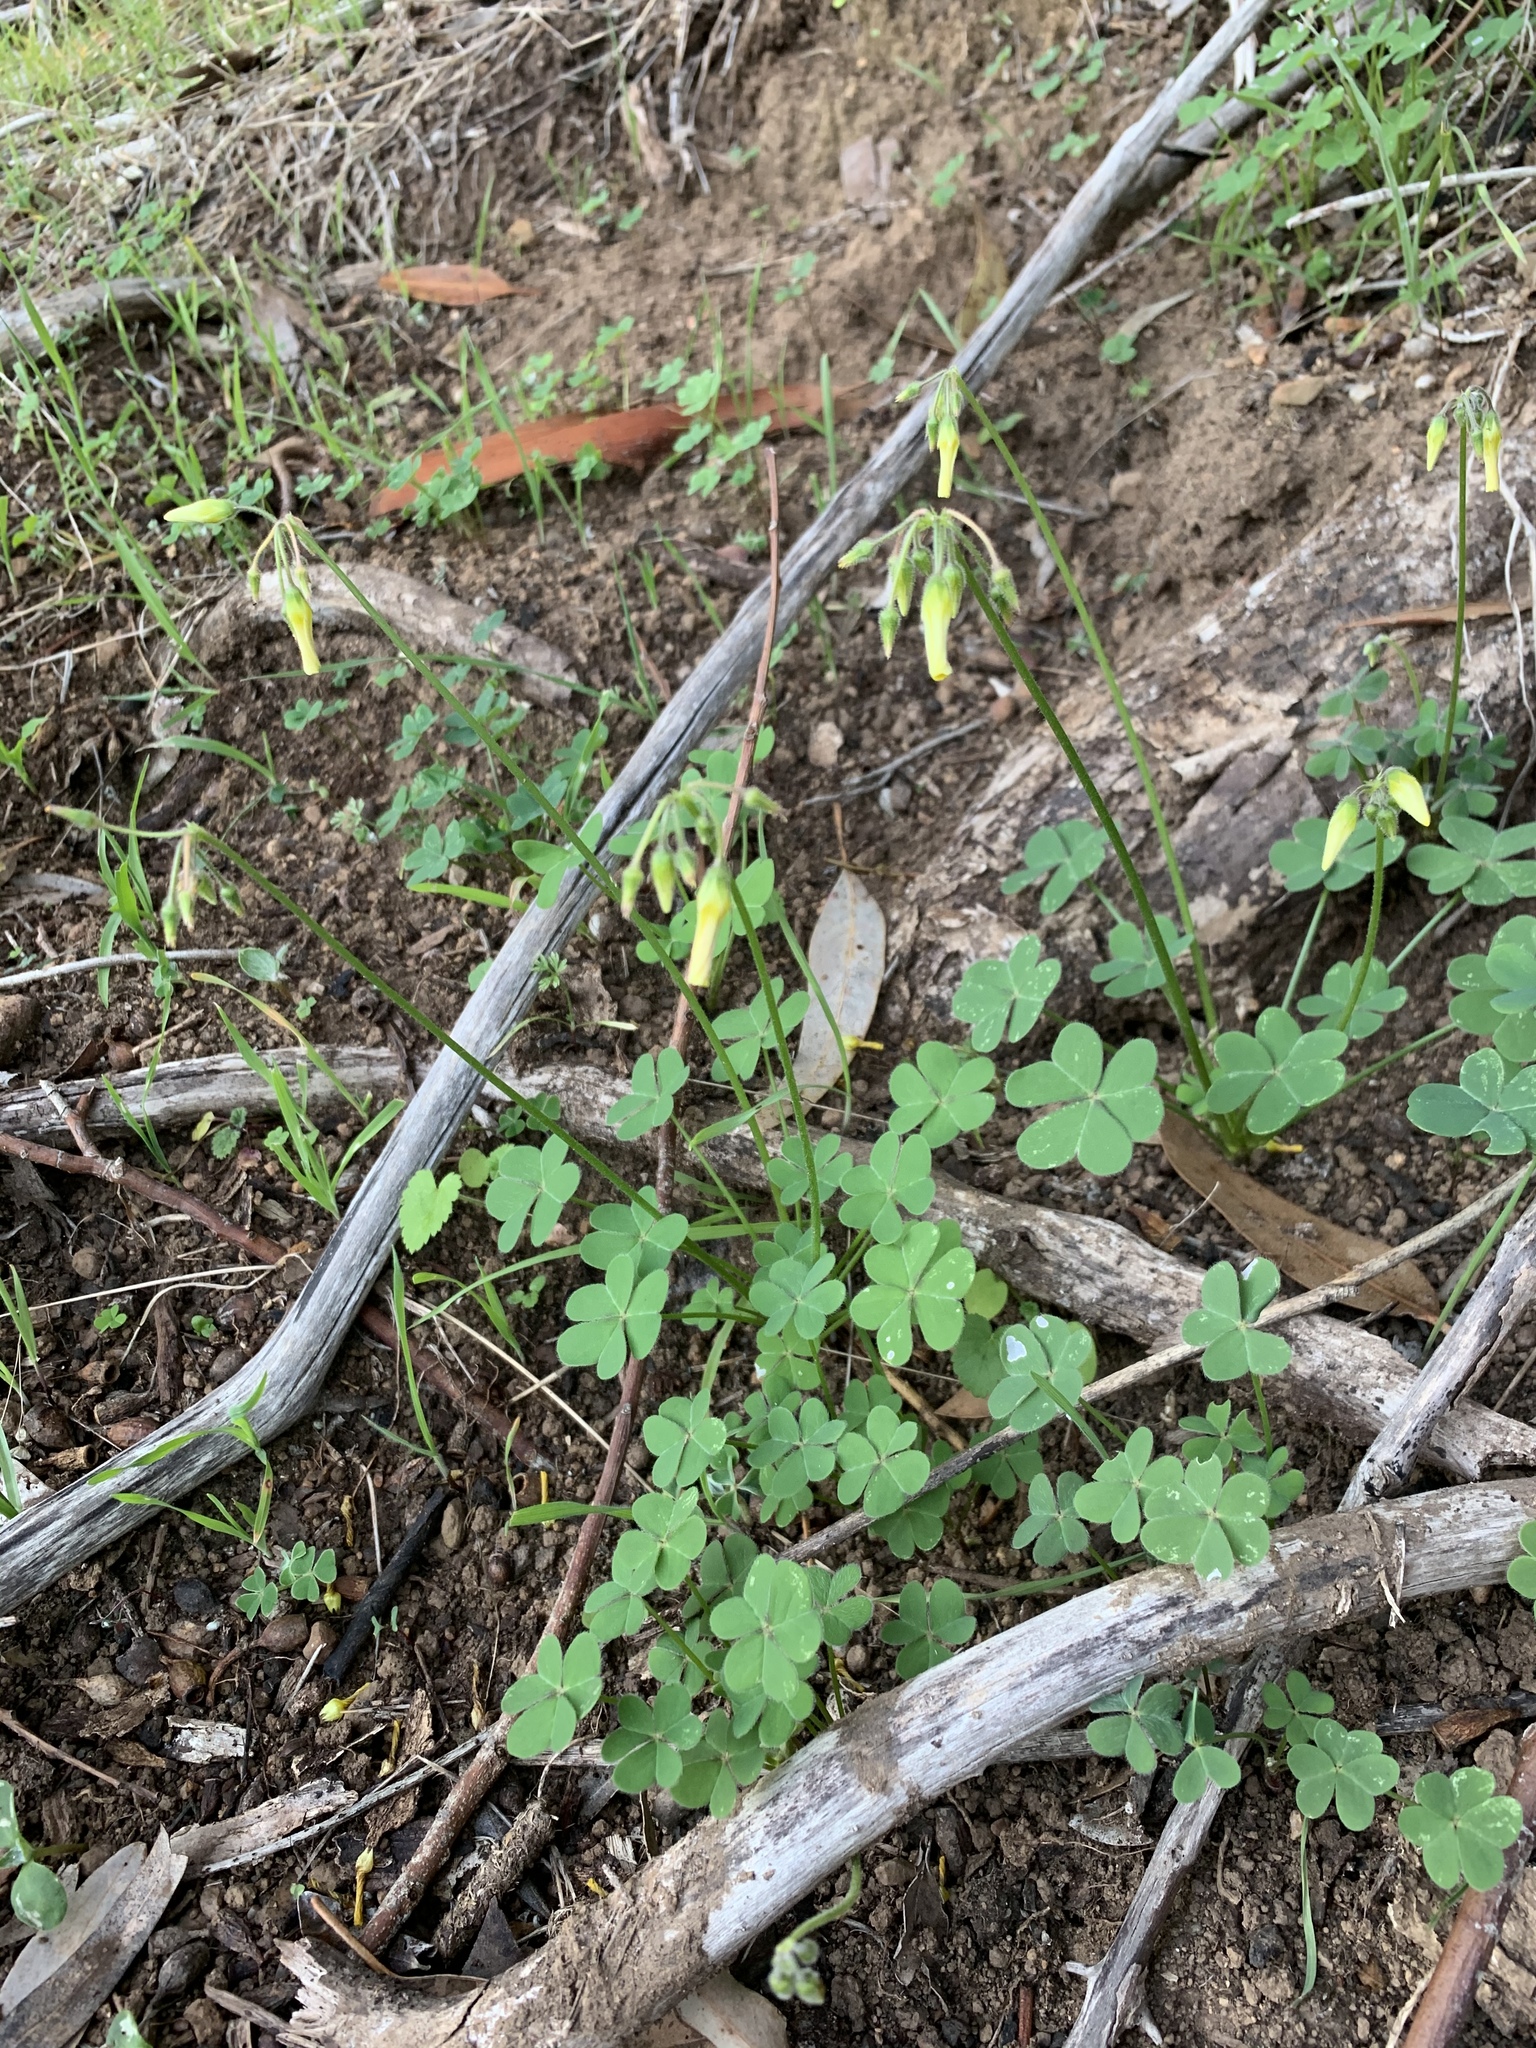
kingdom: Plantae
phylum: Tracheophyta
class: Magnoliopsida
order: Oxalidales
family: Oxalidaceae
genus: Oxalis
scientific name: Oxalis pes-caprae
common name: Bermuda-buttercup
